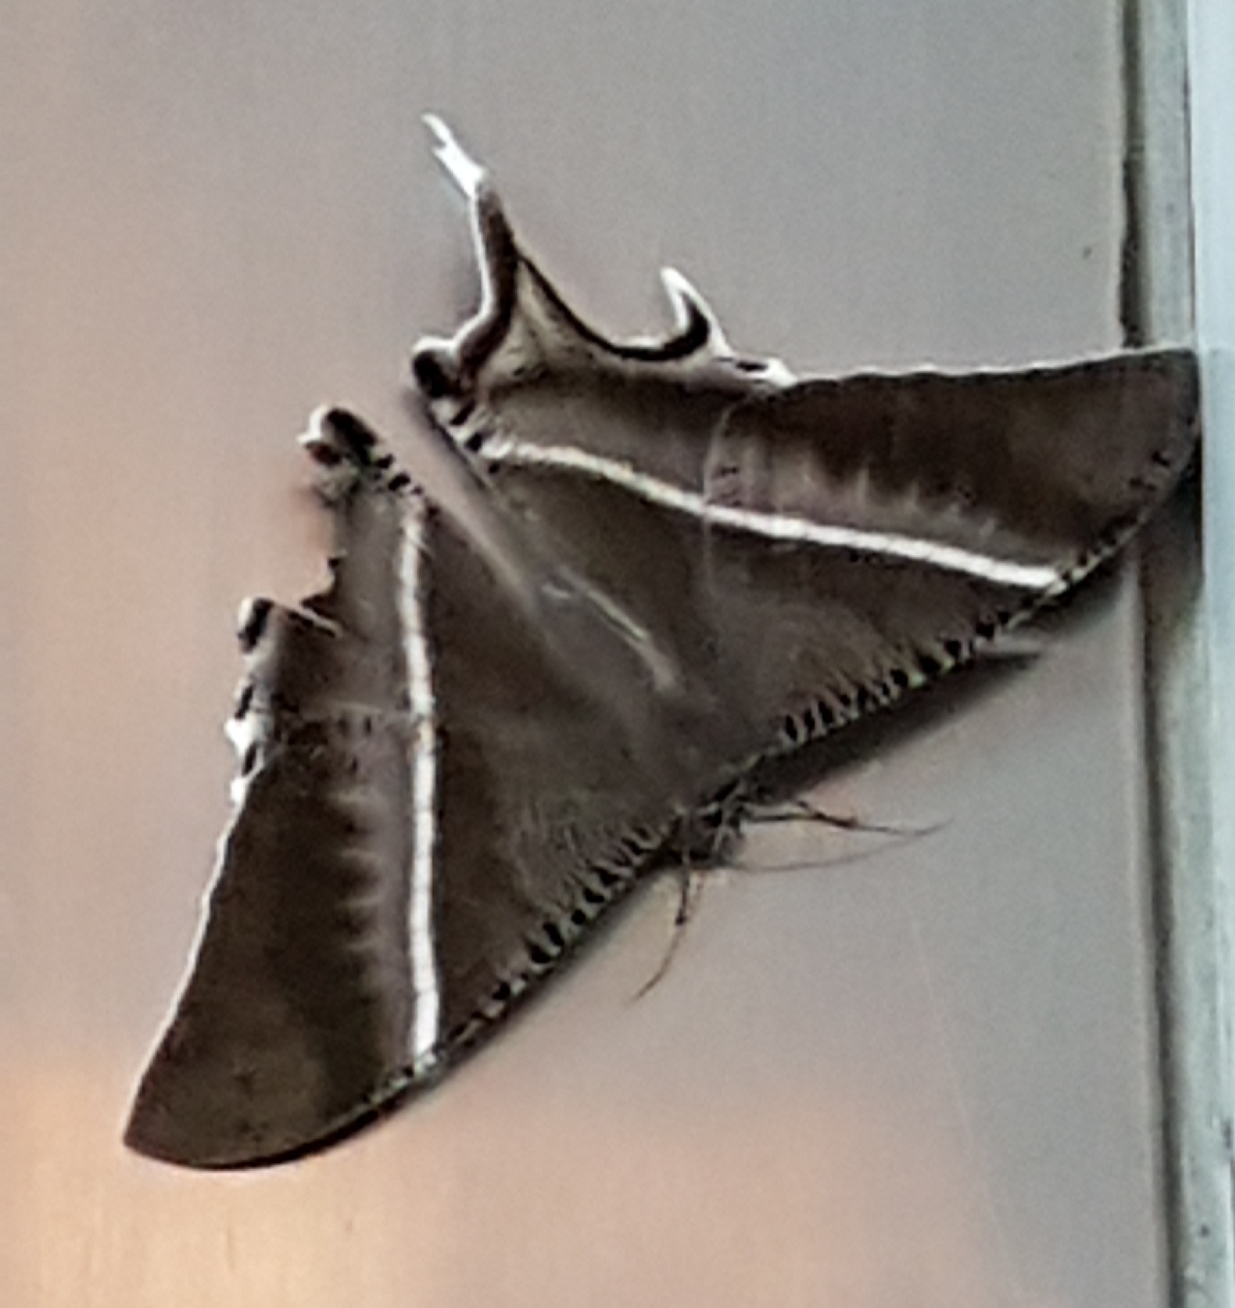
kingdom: Animalia
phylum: Arthropoda
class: Insecta
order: Lepidoptera
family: Uraniidae
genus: Lyssa
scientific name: Lyssa zampa
